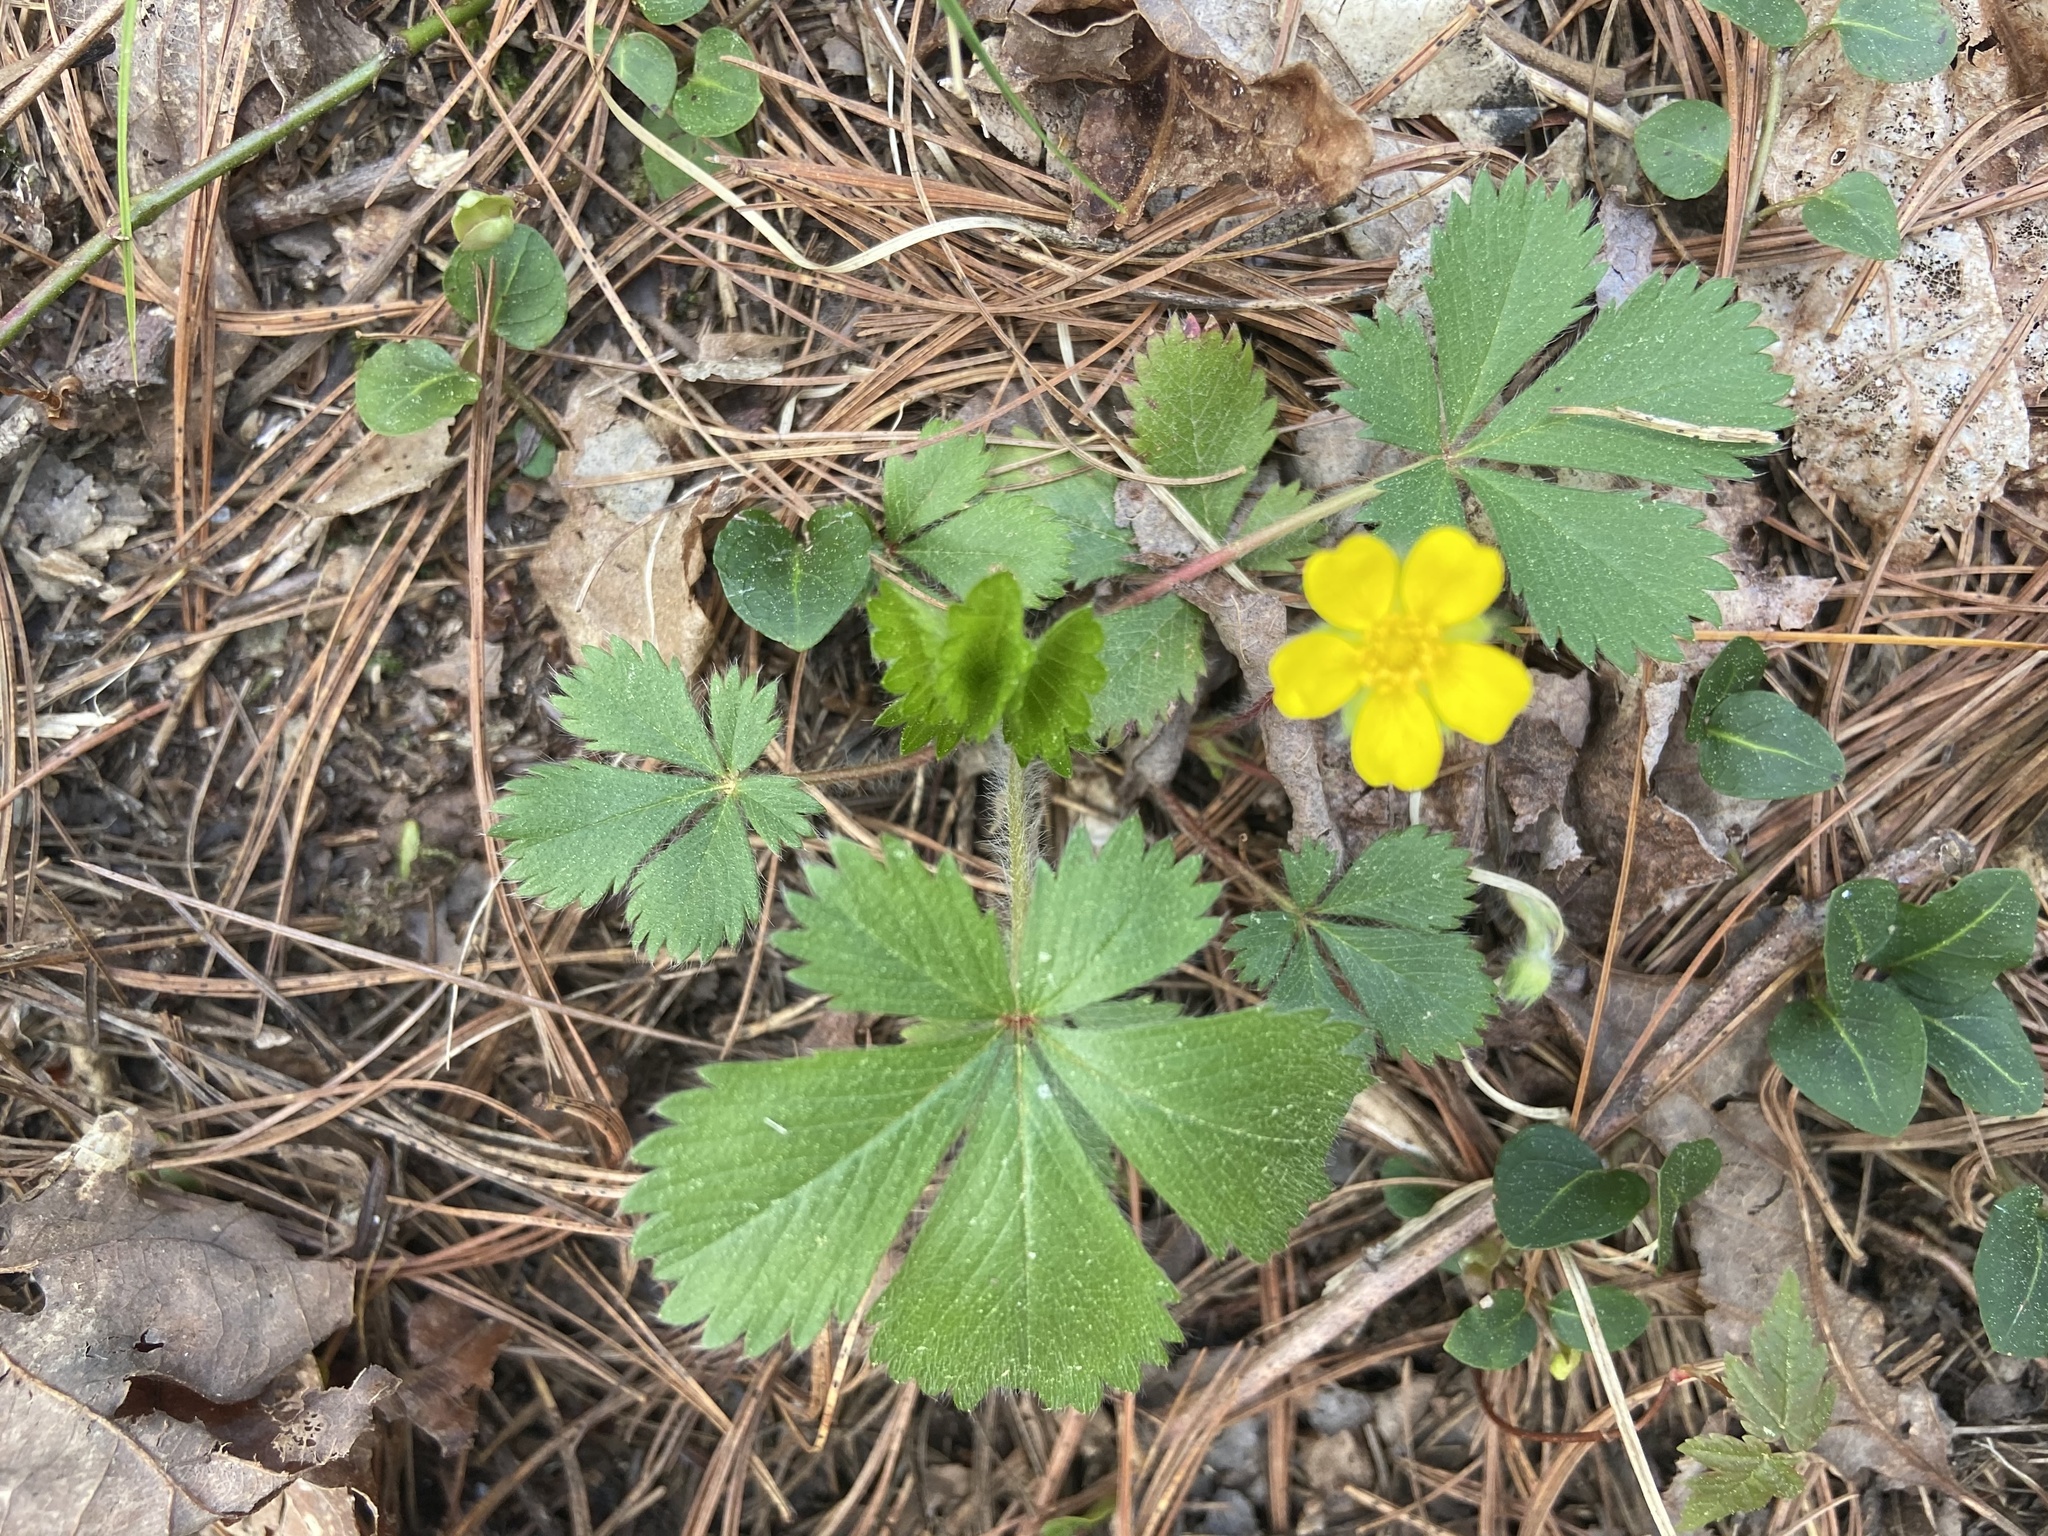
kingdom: Plantae
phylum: Tracheophyta
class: Magnoliopsida
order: Rosales
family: Rosaceae
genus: Potentilla
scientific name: Potentilla canadensis
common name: Canada cinquefoil
